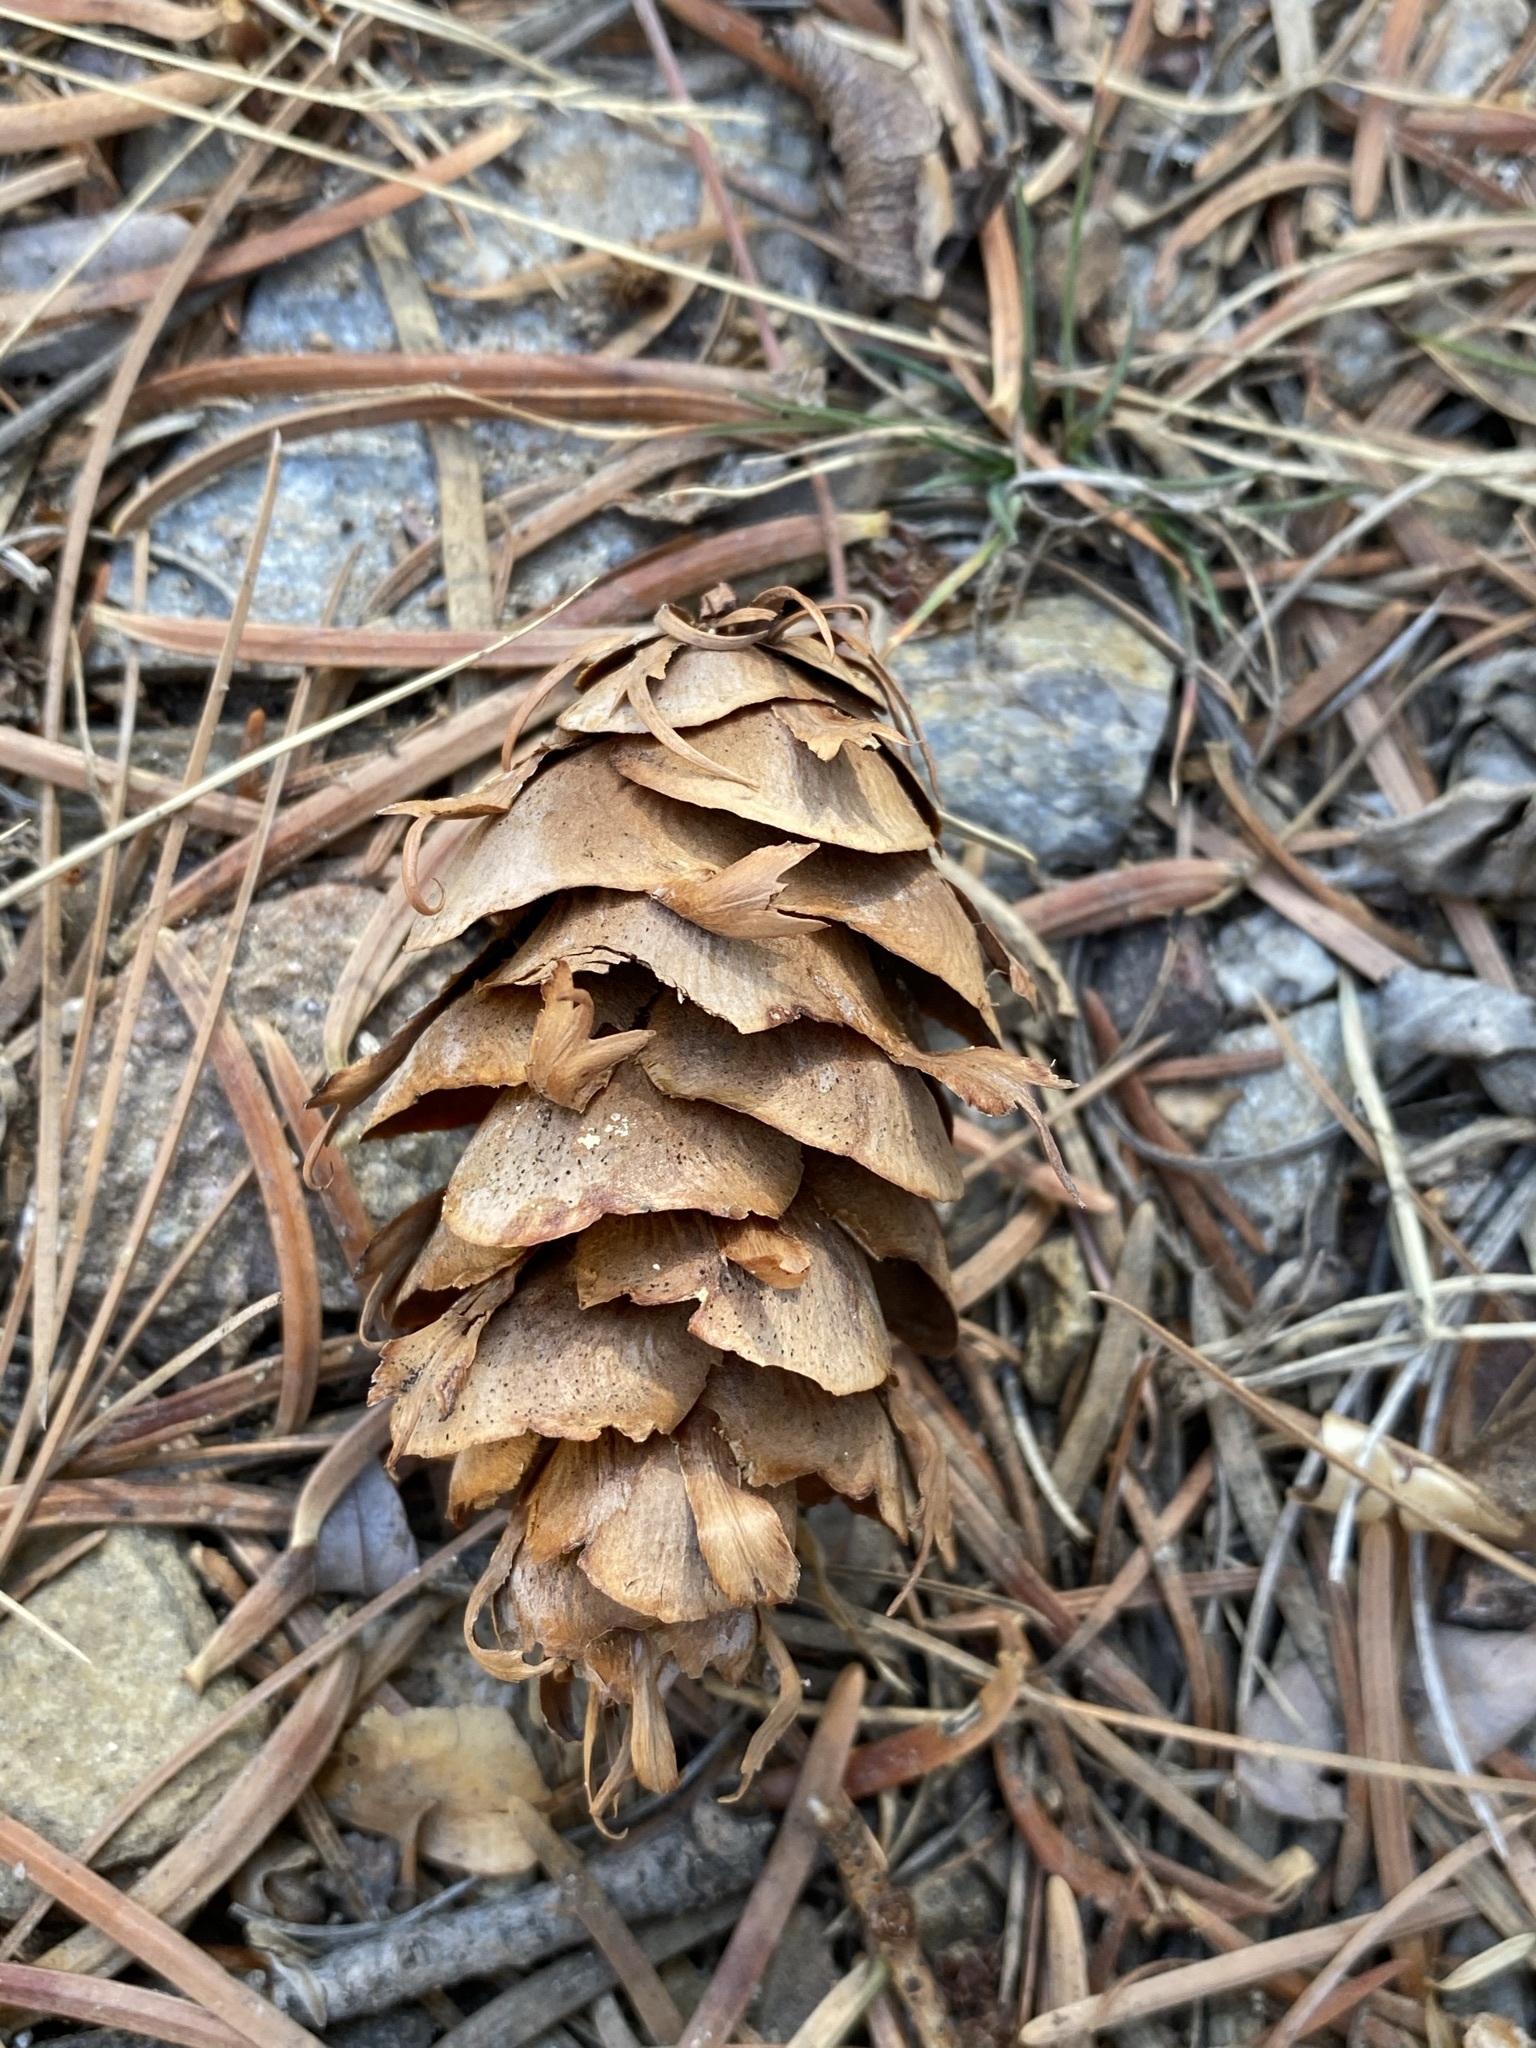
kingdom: Plantae
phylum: Tracheophyta
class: Pinopsida
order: Pinales
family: Pinaceae
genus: Pseudotsuga
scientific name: Pseudotsuga menziesii
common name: Douglas fir
